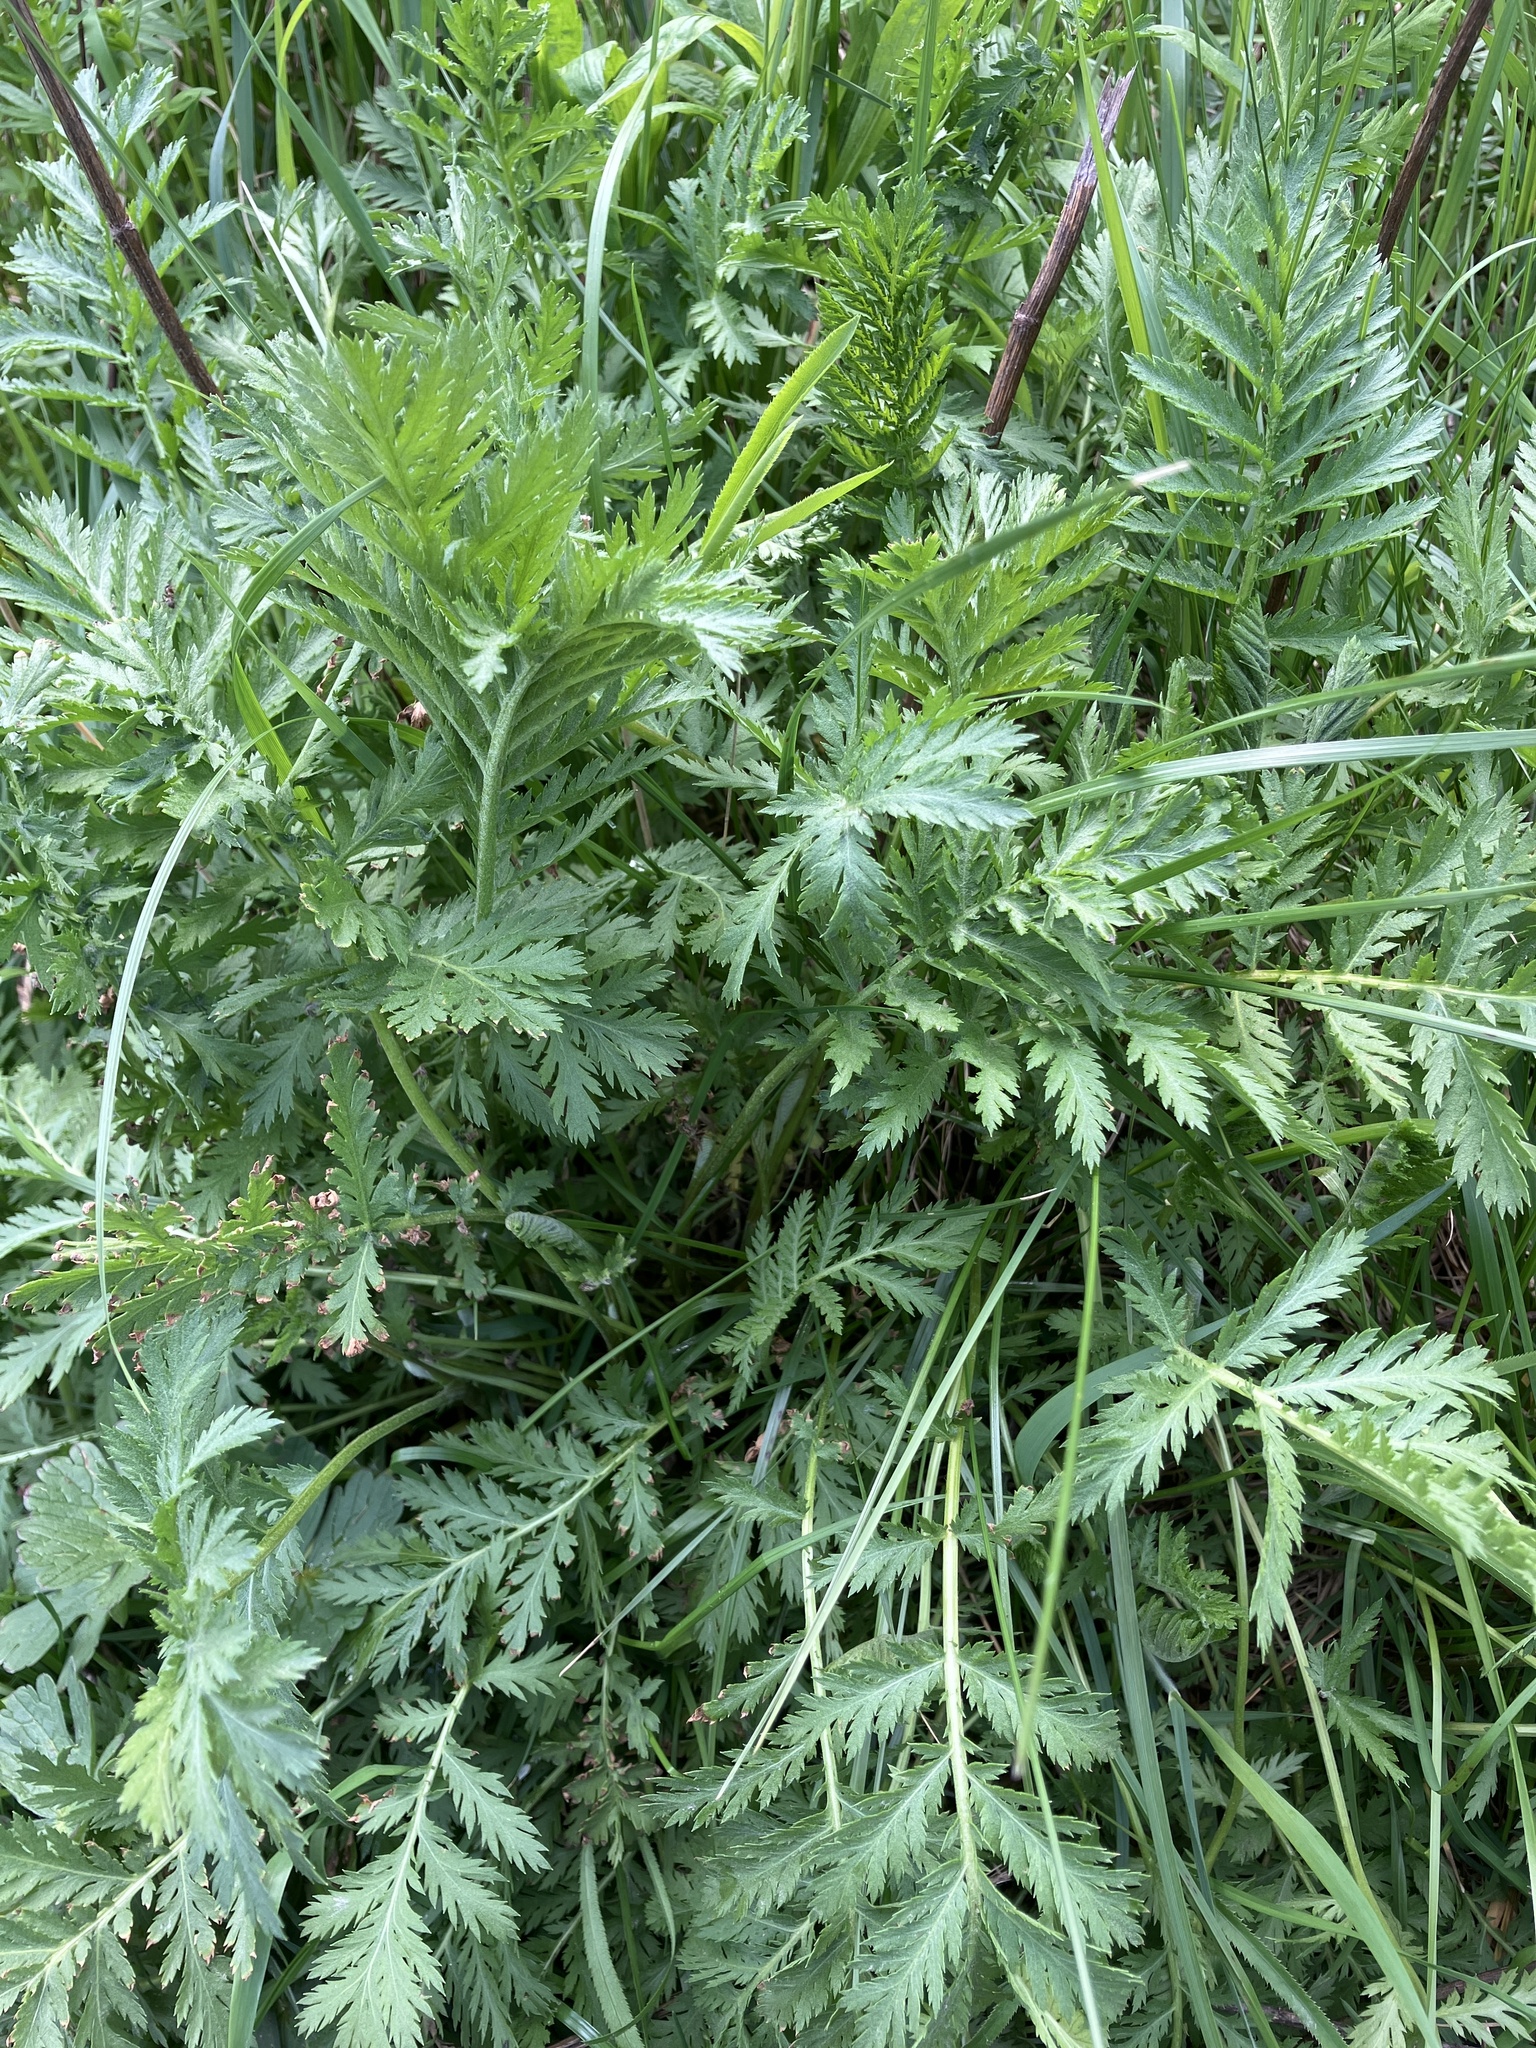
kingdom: Plantae
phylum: Tracheophyta
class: Magnoliopsida
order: Asterales
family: Asteraceae
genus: Tanacetum
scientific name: Tanacetum vulgare
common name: Common tansy
